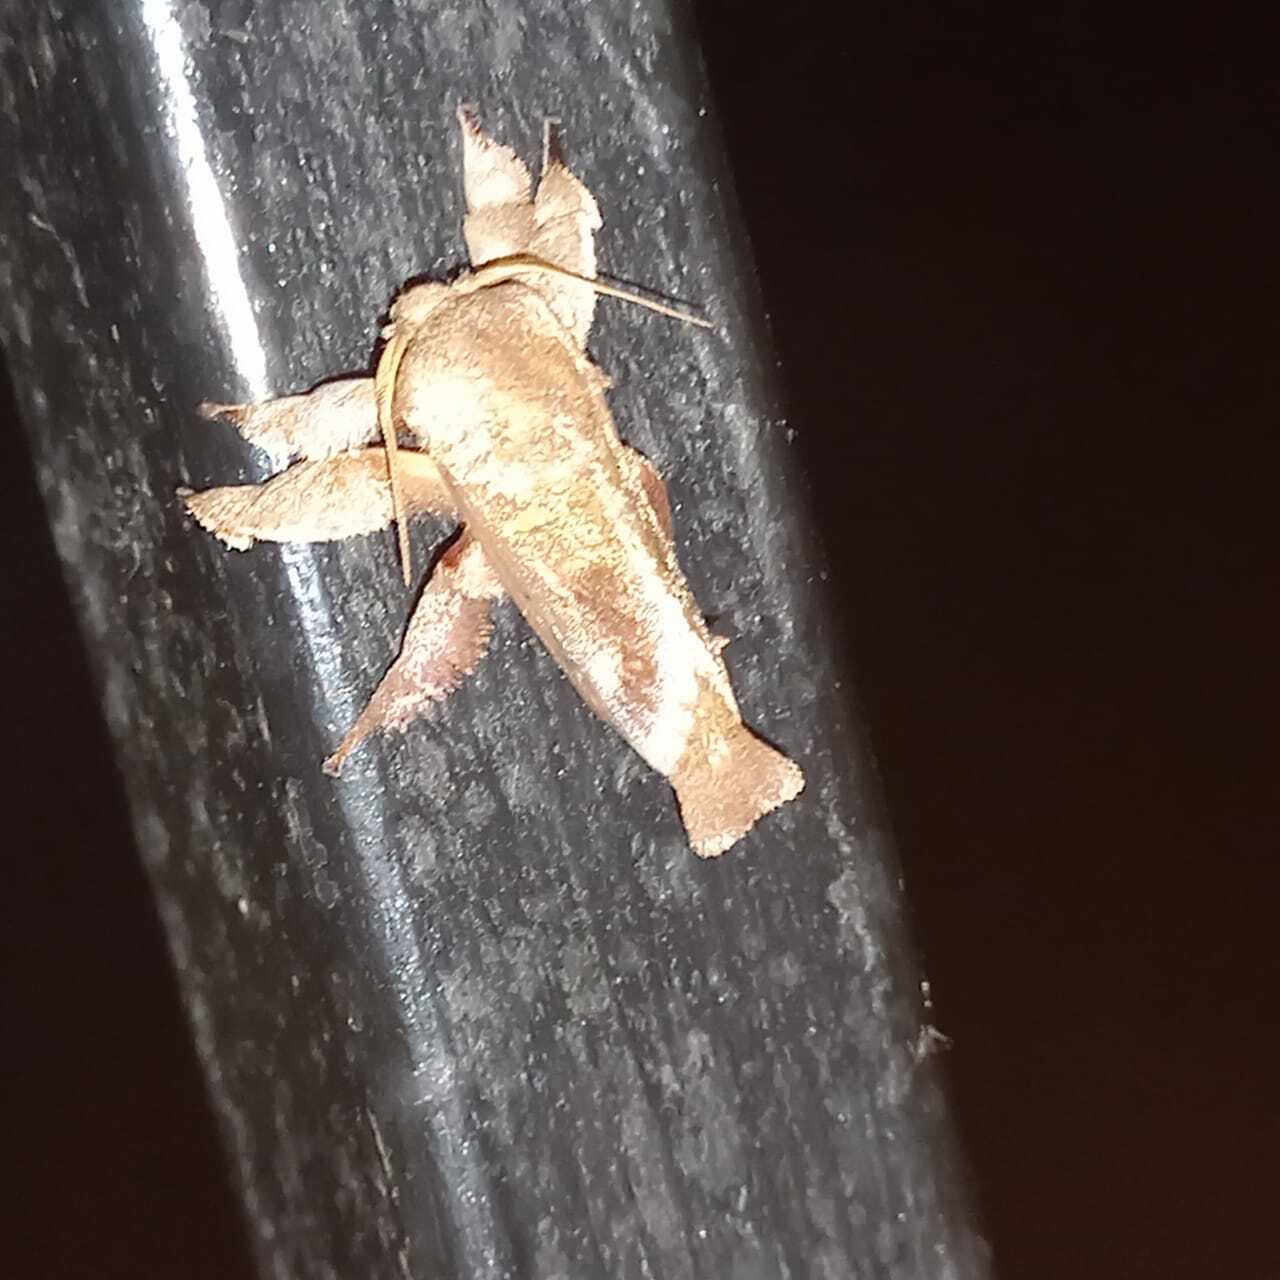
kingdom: Animalia
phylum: Arthropoda
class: Insecta
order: Lepidoptera
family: Limacodidae
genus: Euclea
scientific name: Euclea norba
